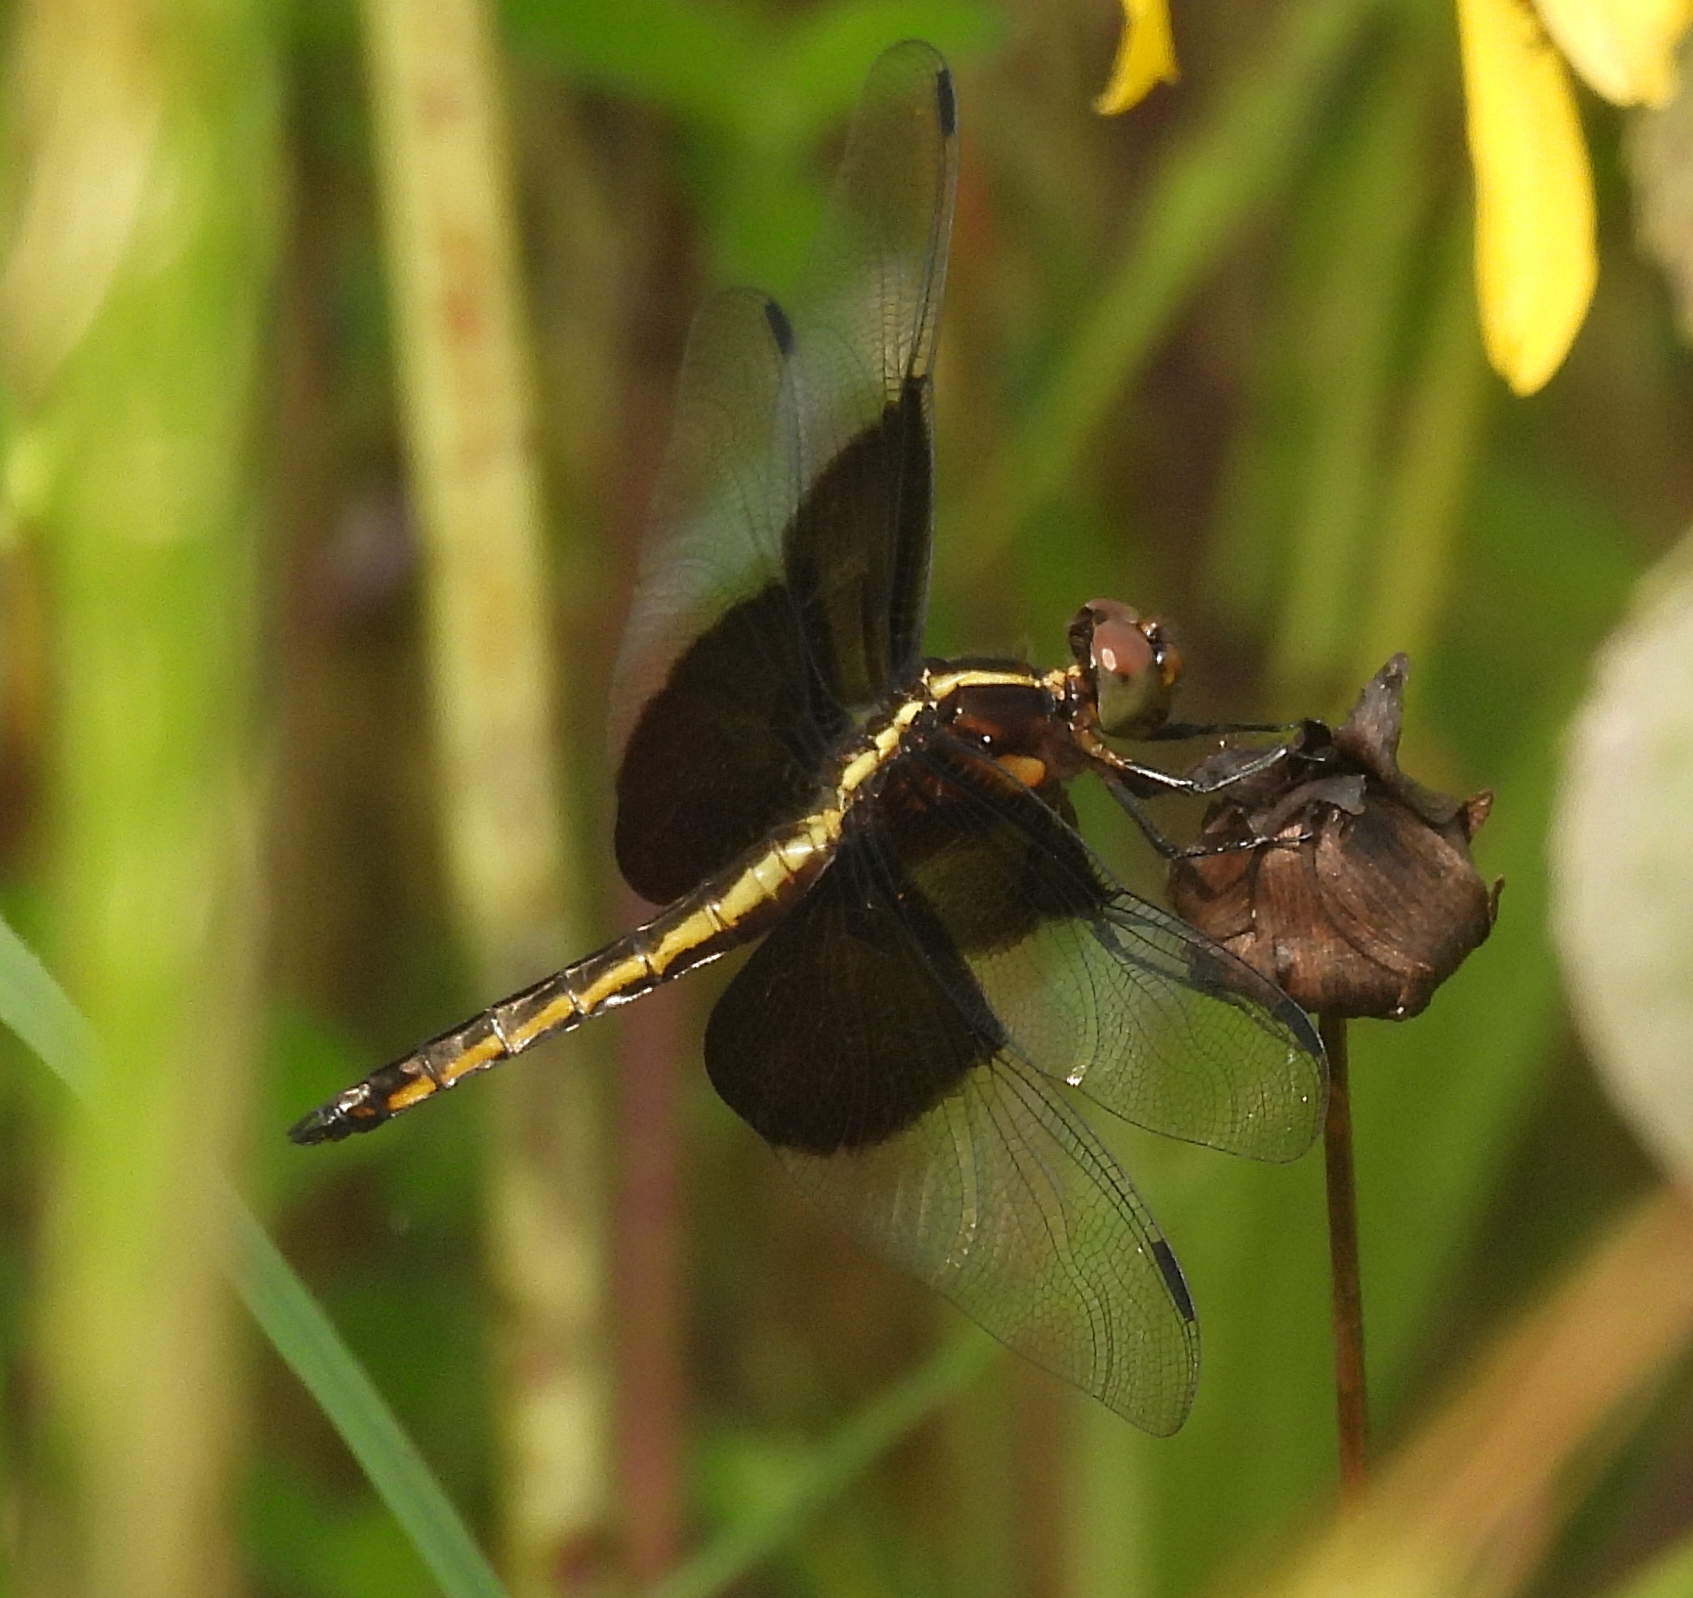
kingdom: Animalia
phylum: Arthropoda
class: Insecta
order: Odonata
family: Libellulidae
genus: Libellula
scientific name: Libellula luctuosa
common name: Widow skimmer
